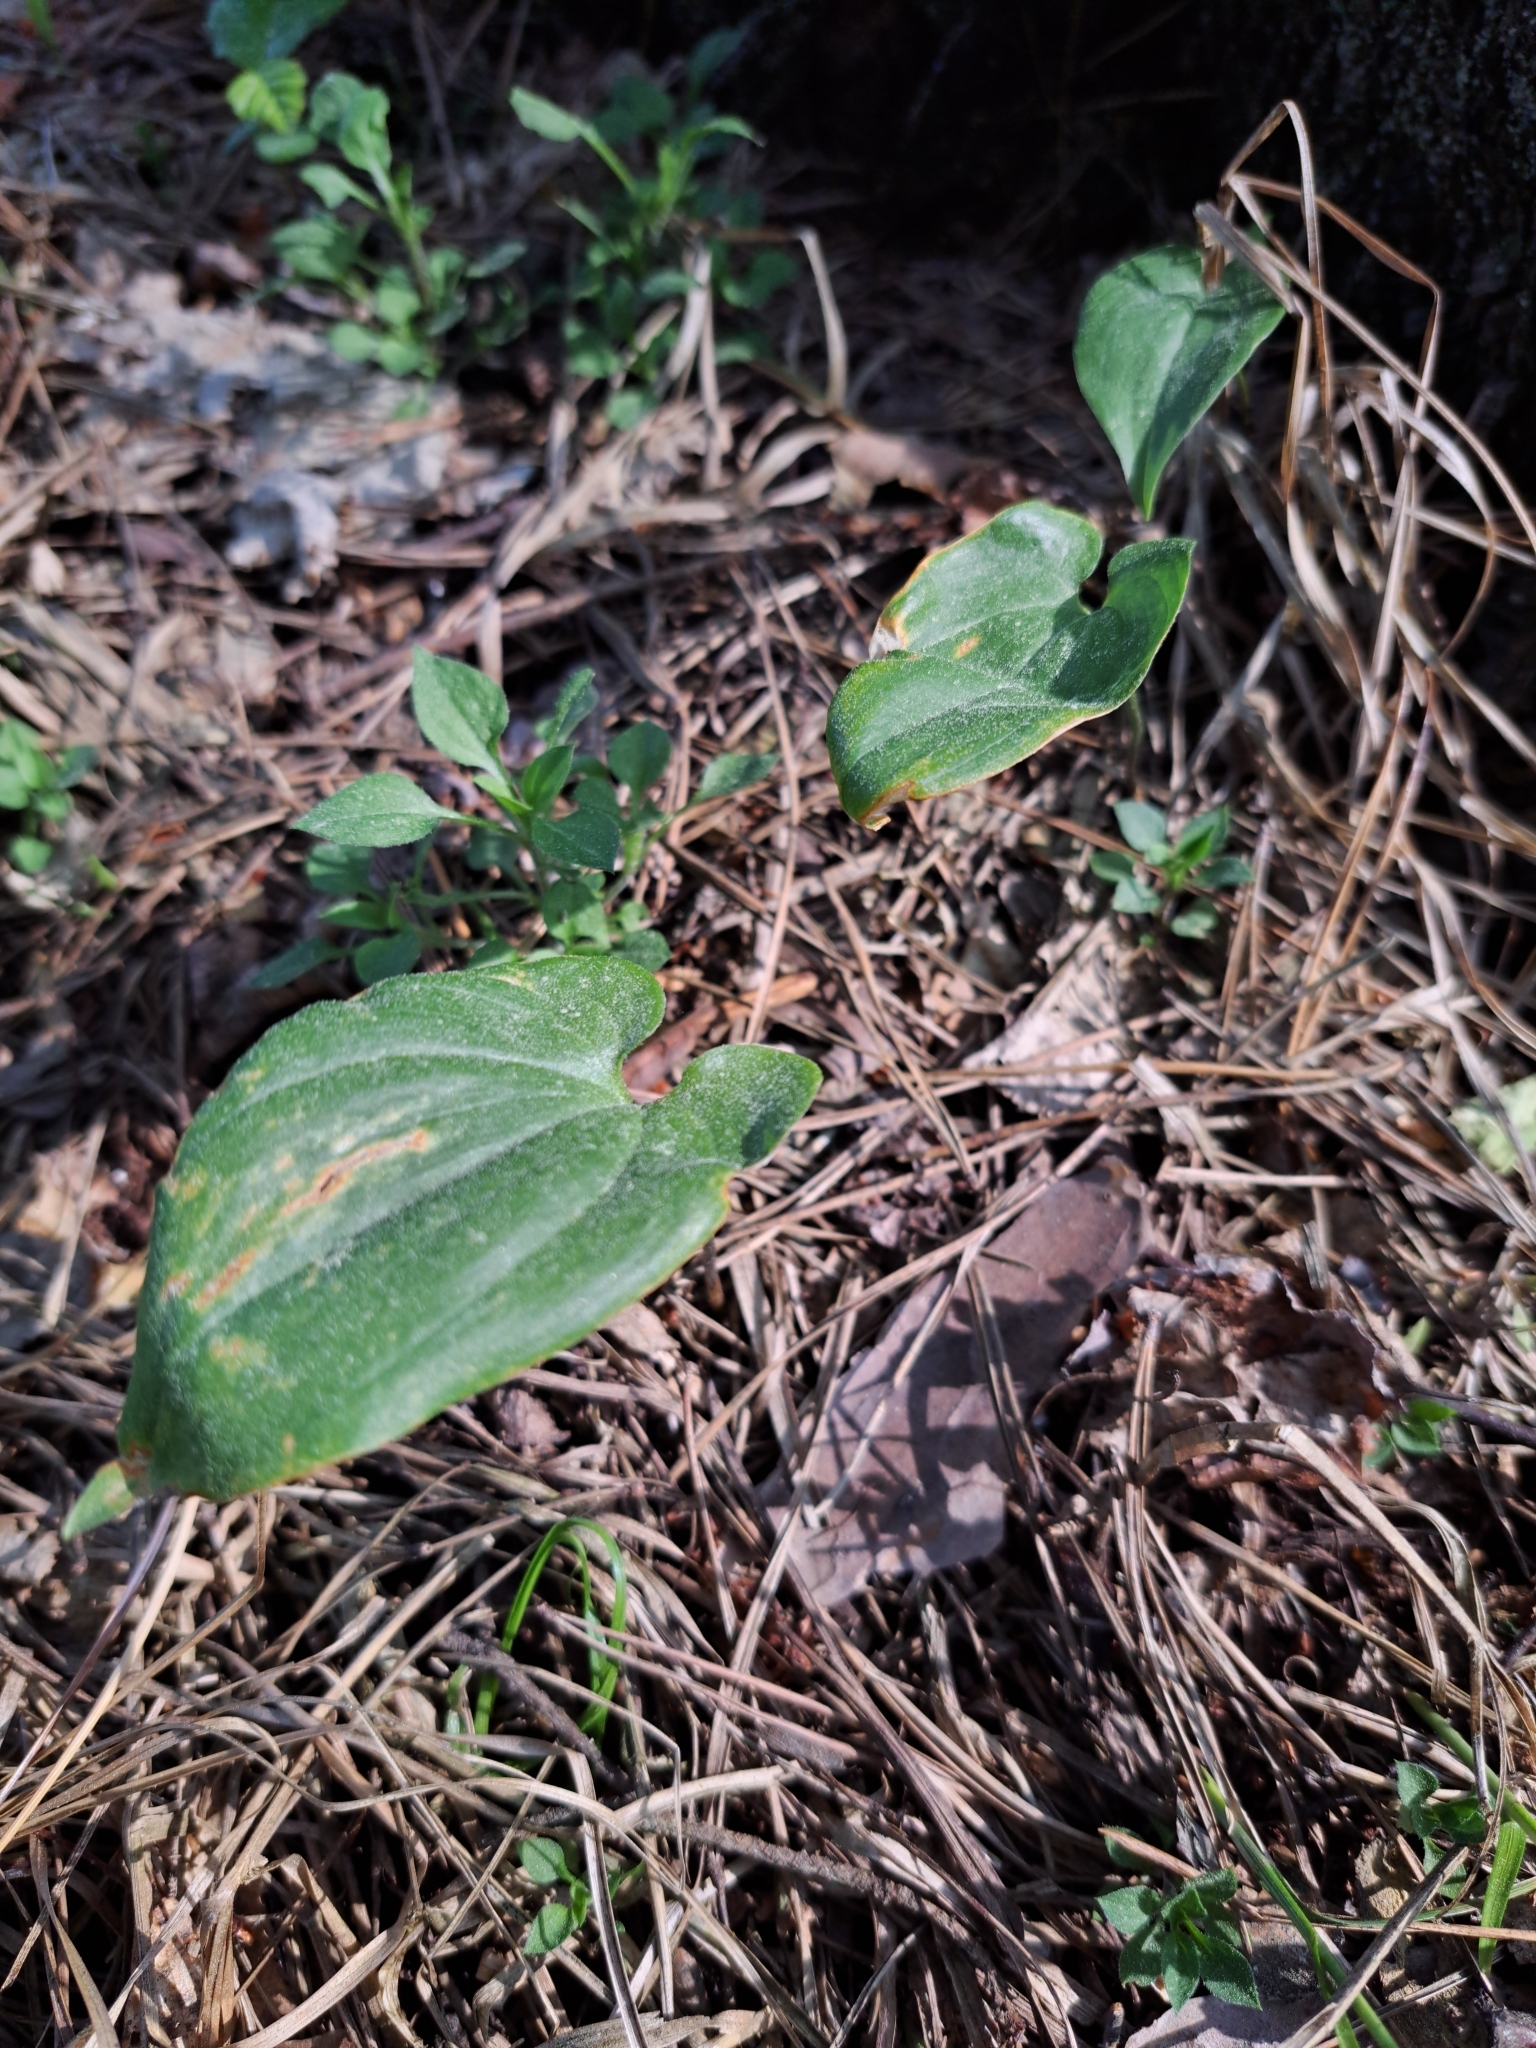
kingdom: Plantae
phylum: Tracheophyta
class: Liliopsida
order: Asparagales
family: Asparagaceae
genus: Maianthemum
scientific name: Maianthemum bifolium
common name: May lily
